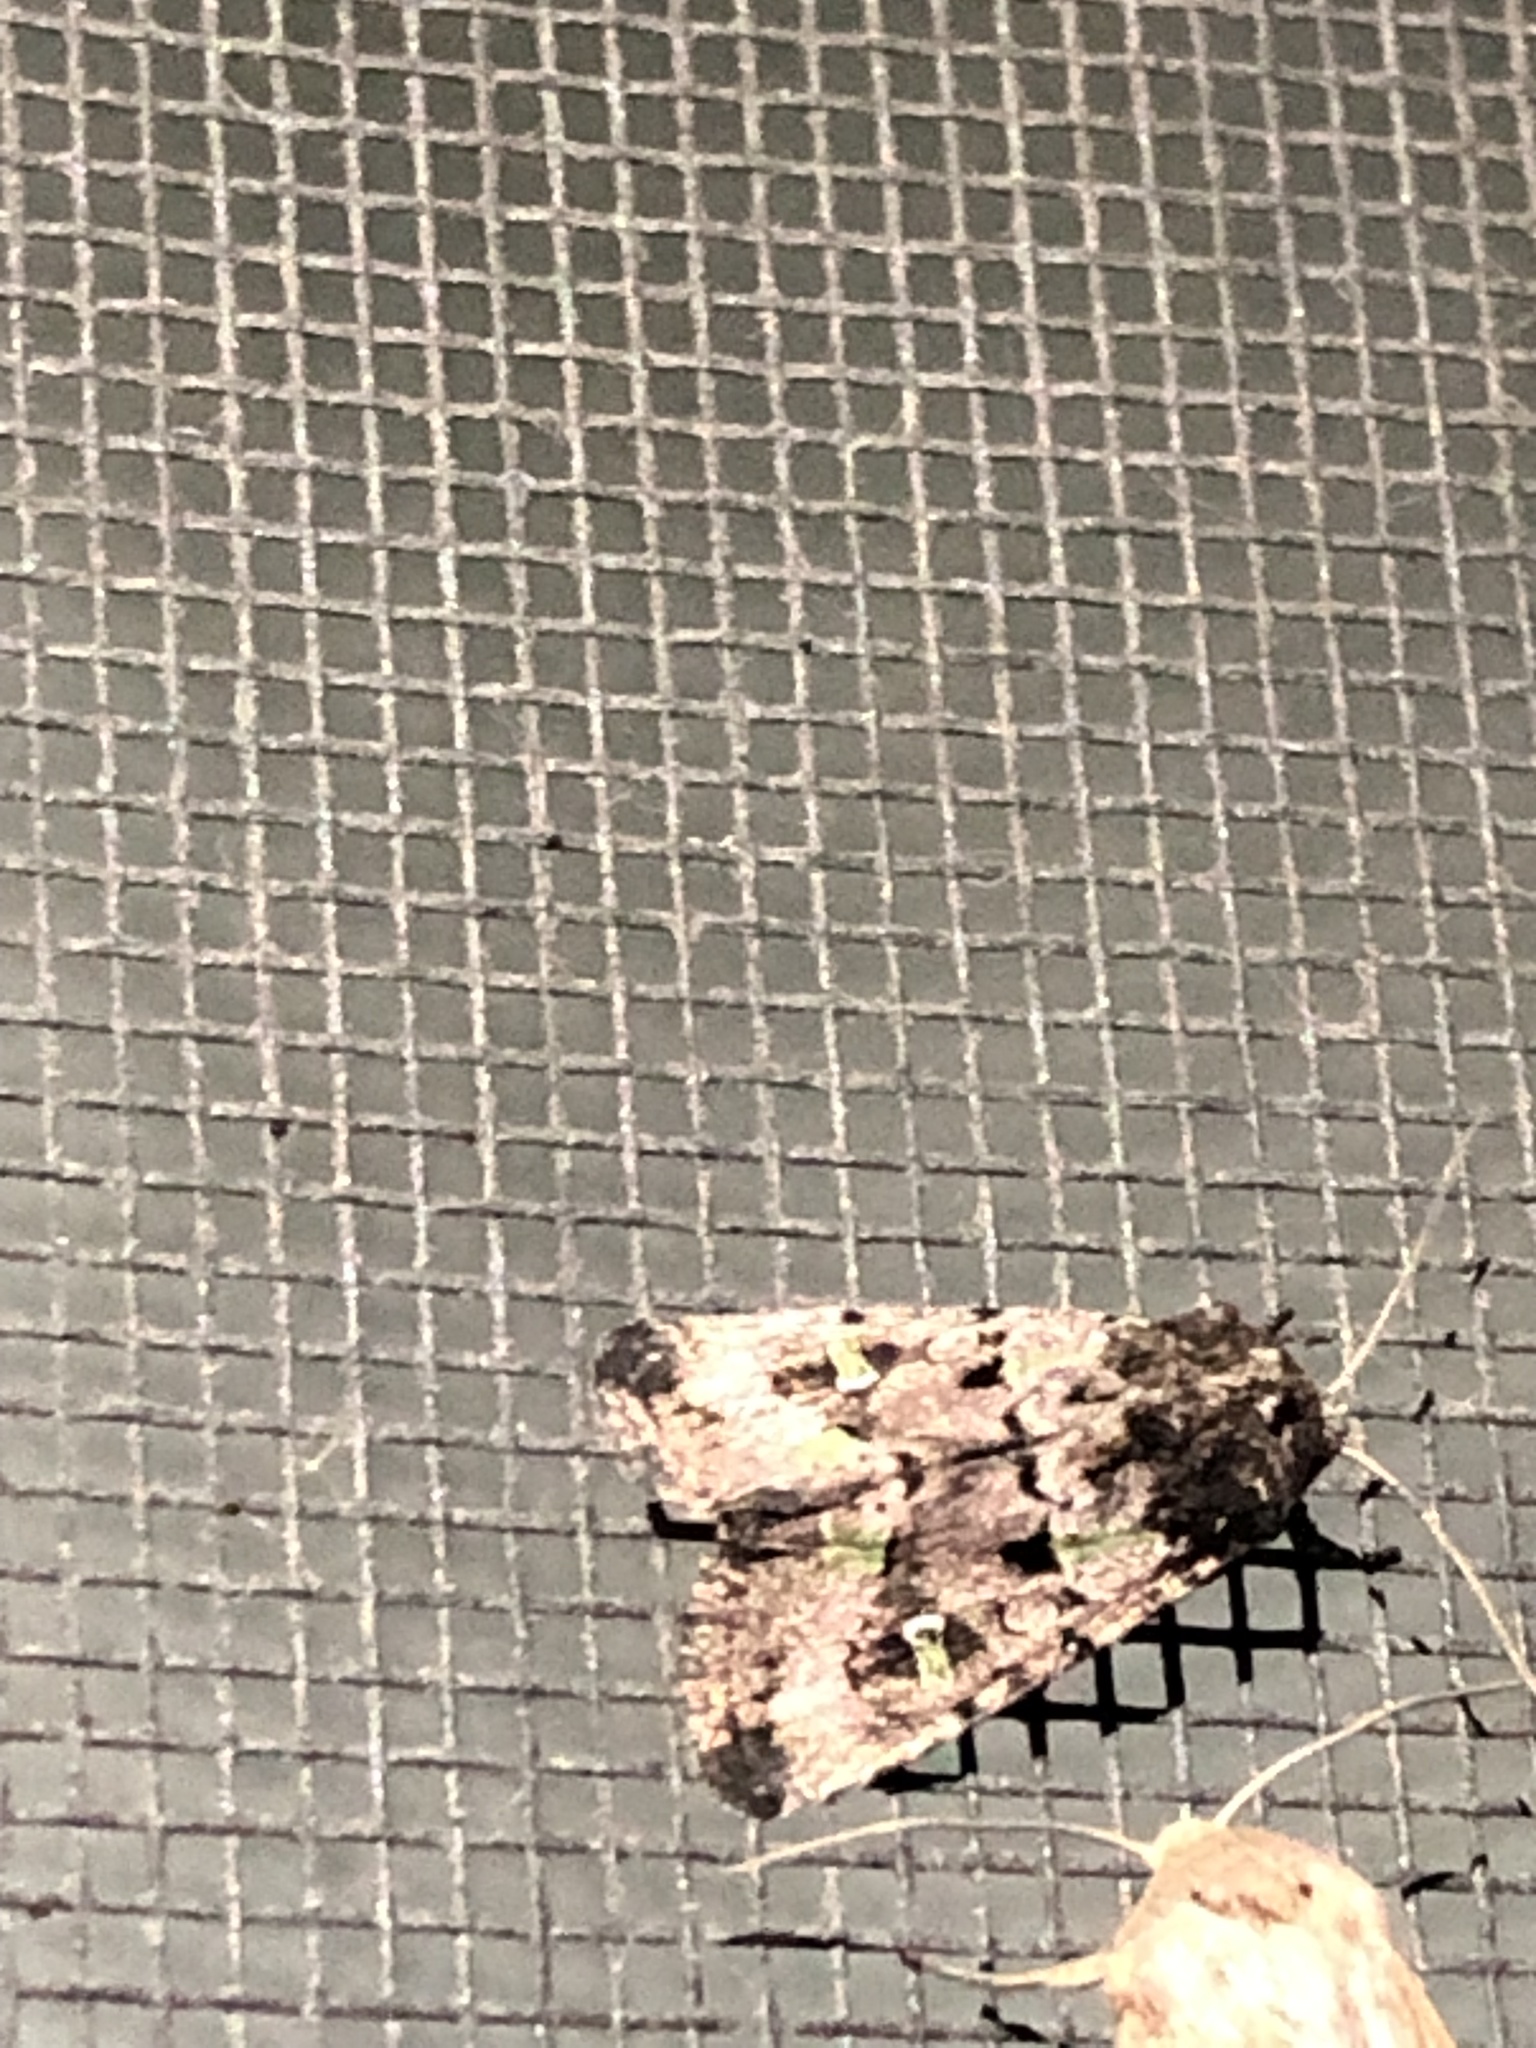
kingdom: Animalia
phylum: Arthropoda
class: Insecta
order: Lepidoptera
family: Noctuidae
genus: Lacinipolia
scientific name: Lacinipolia renigera
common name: Kidney-spotted minor
